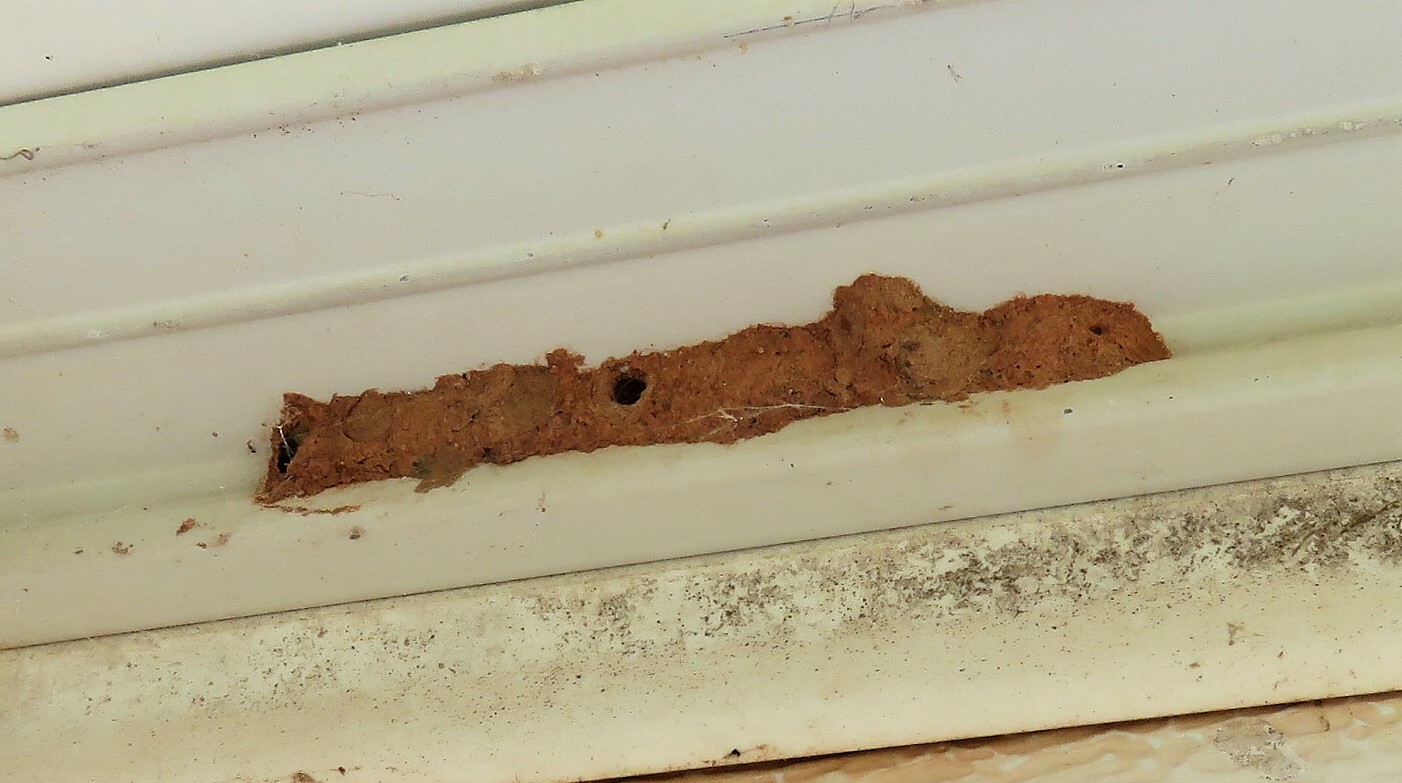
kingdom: Animalia
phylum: Arthropoda
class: Insecta
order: Hymenoptera
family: Vespidae
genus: Ancistrocerus
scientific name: Ancistrocerus
